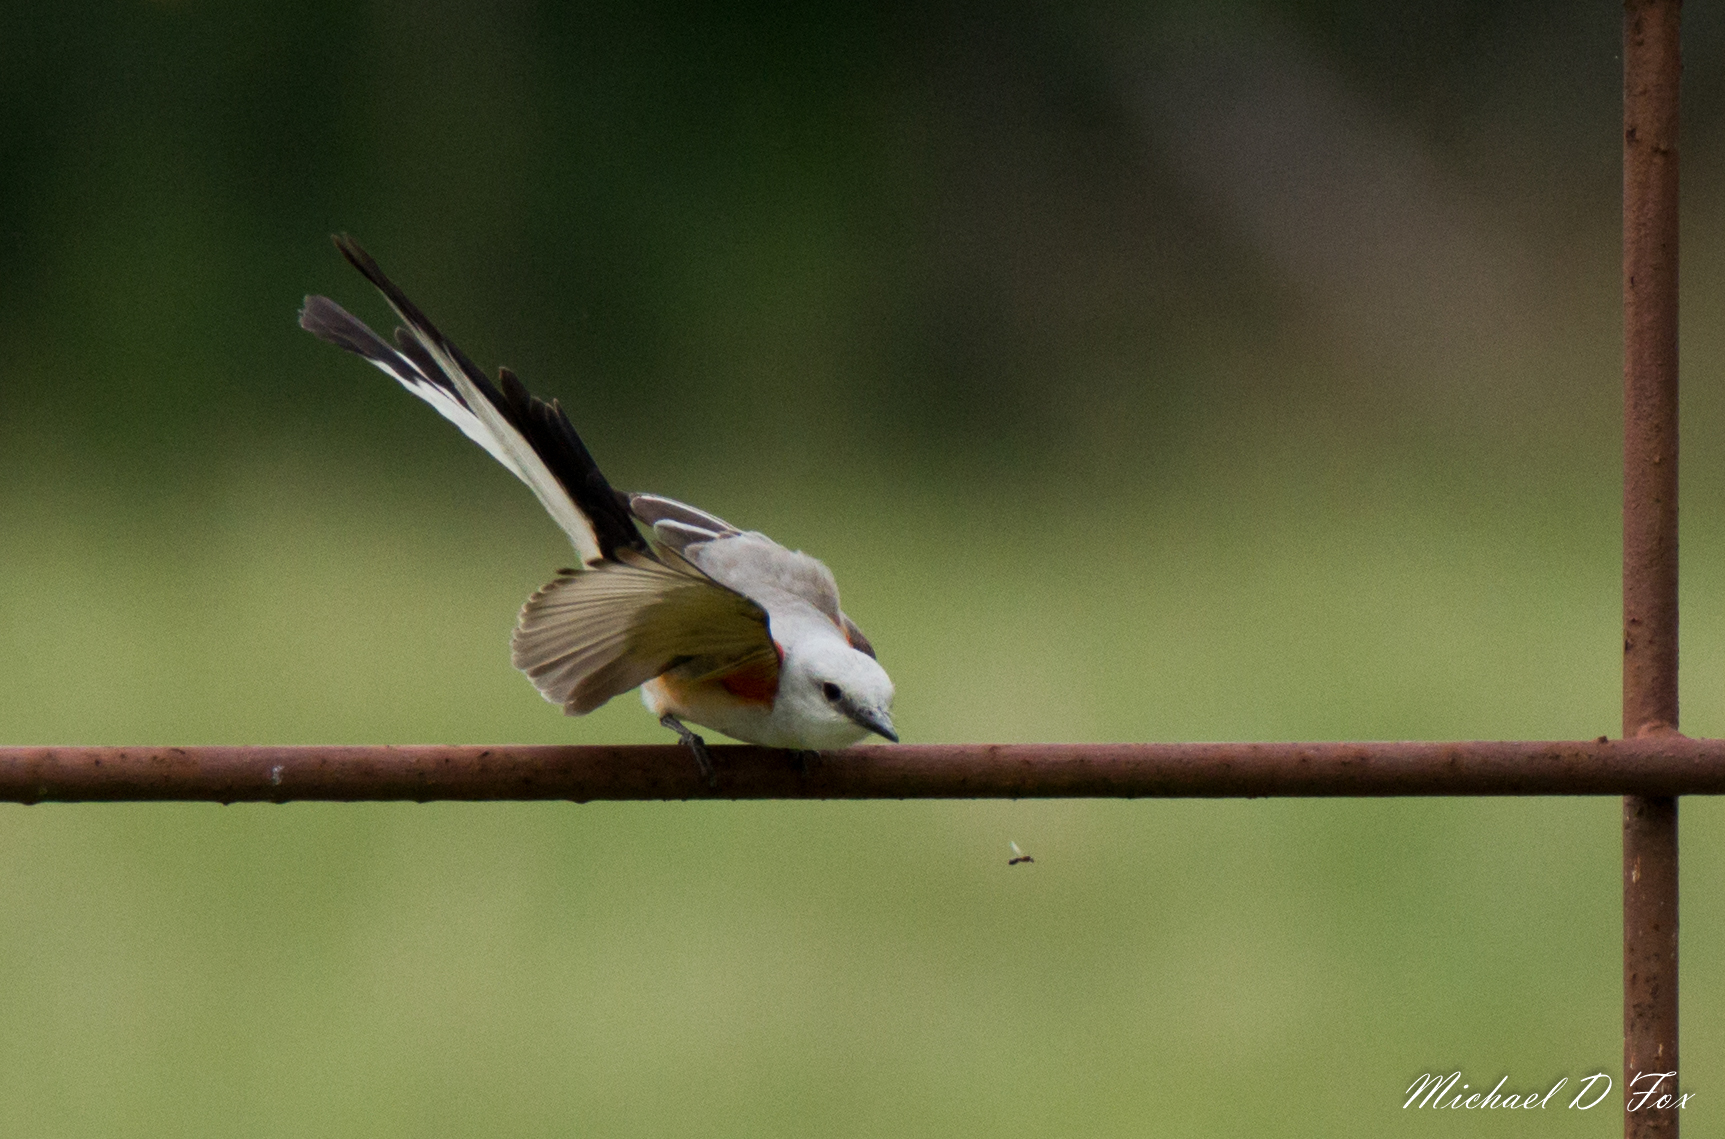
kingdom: Animalia
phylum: Chordata
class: Aves
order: Passeriformes
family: Tyrannidae
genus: Tyrannus
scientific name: Tyrannus forficatus
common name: Scissor-tailed flycatcher
